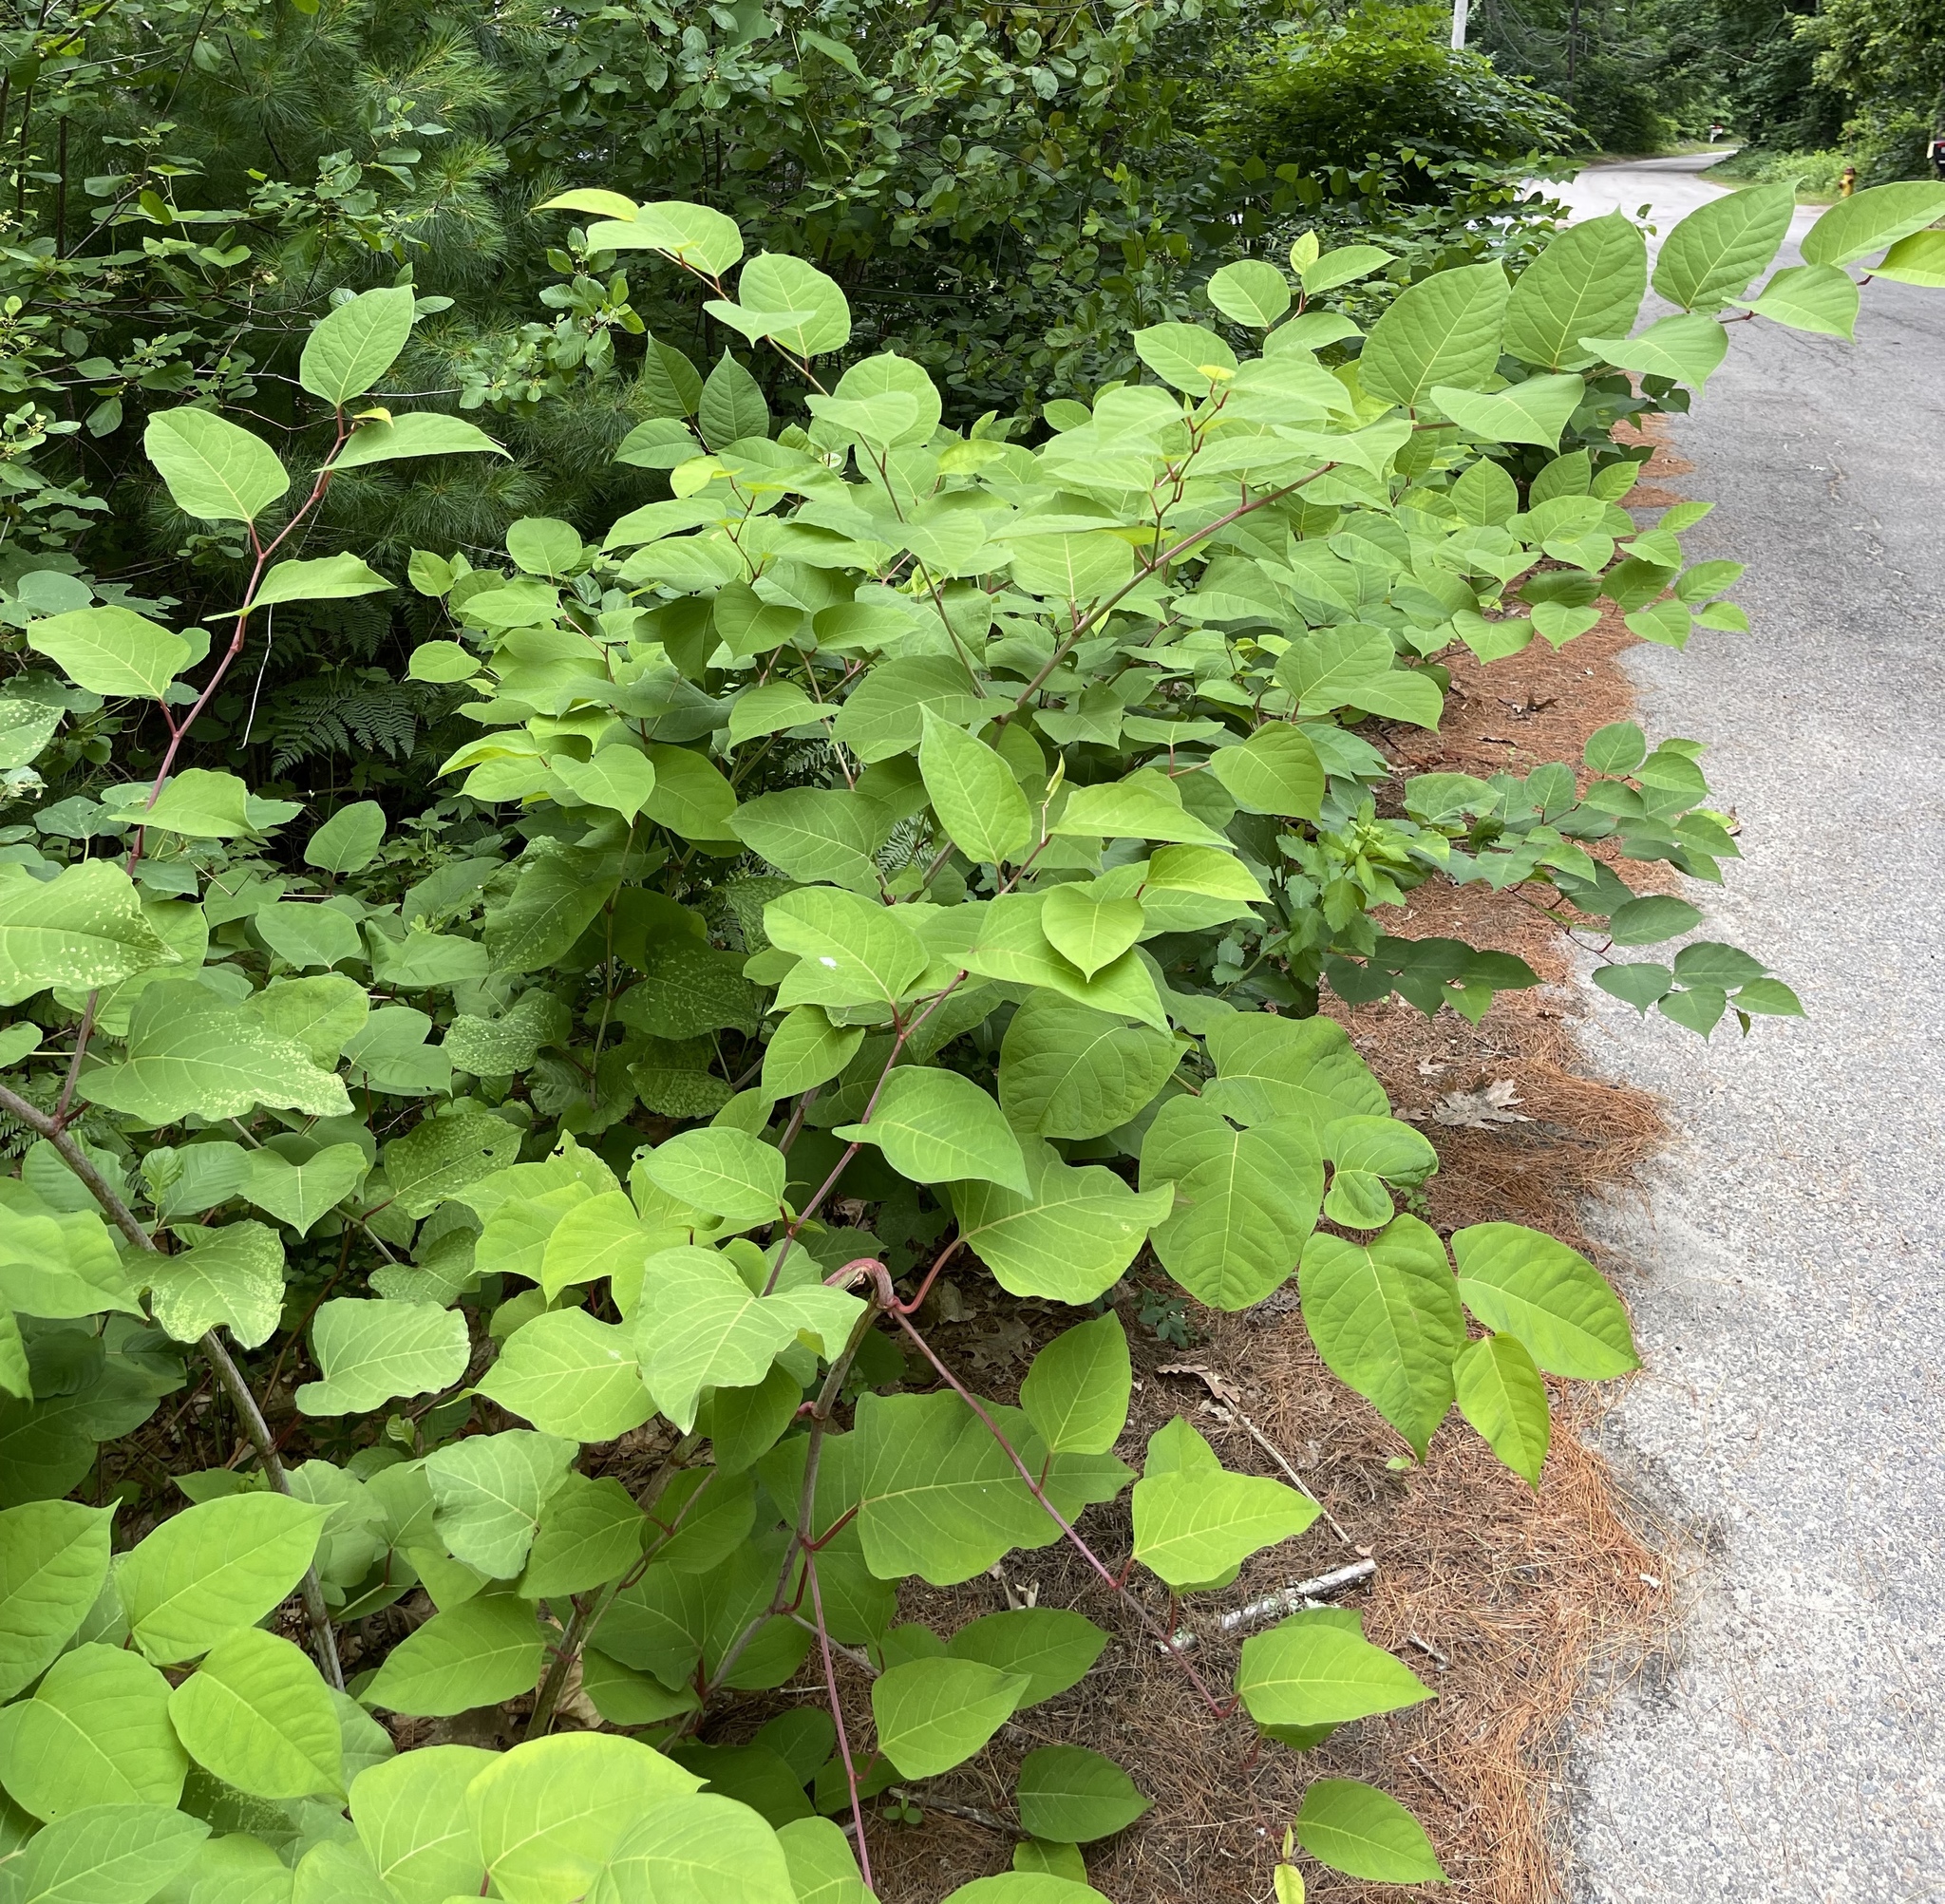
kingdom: Plantae
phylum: Tracheophyta
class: Magnoliopsida
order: Caryophyllales
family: Polygonaceae
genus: Reynoutria
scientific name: Reynoutria japonica
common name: Japanese knotweed
